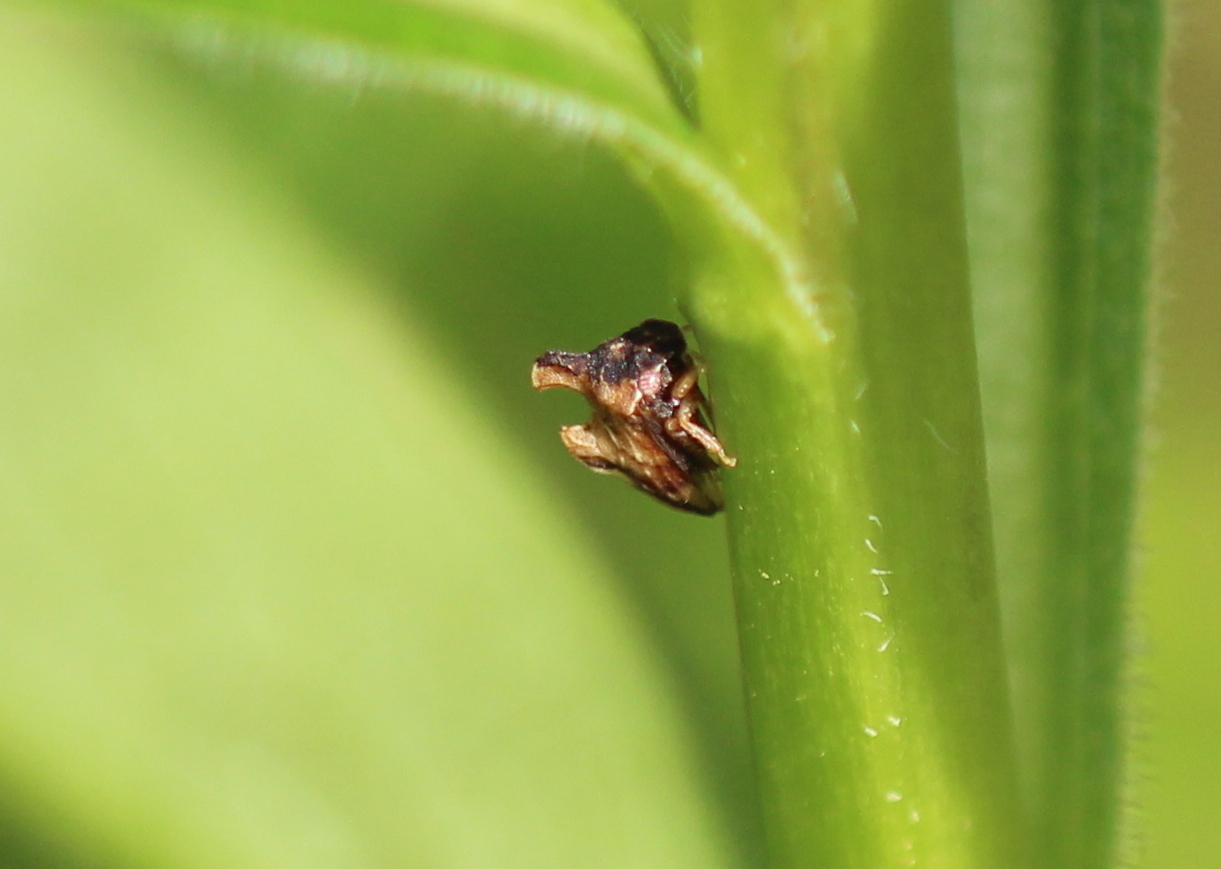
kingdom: Animalia
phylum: Arthropoda
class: Insecta
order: Hemiptera
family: Membracidae
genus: Entylia
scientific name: Entylia carinata
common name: Keeled treehopper
